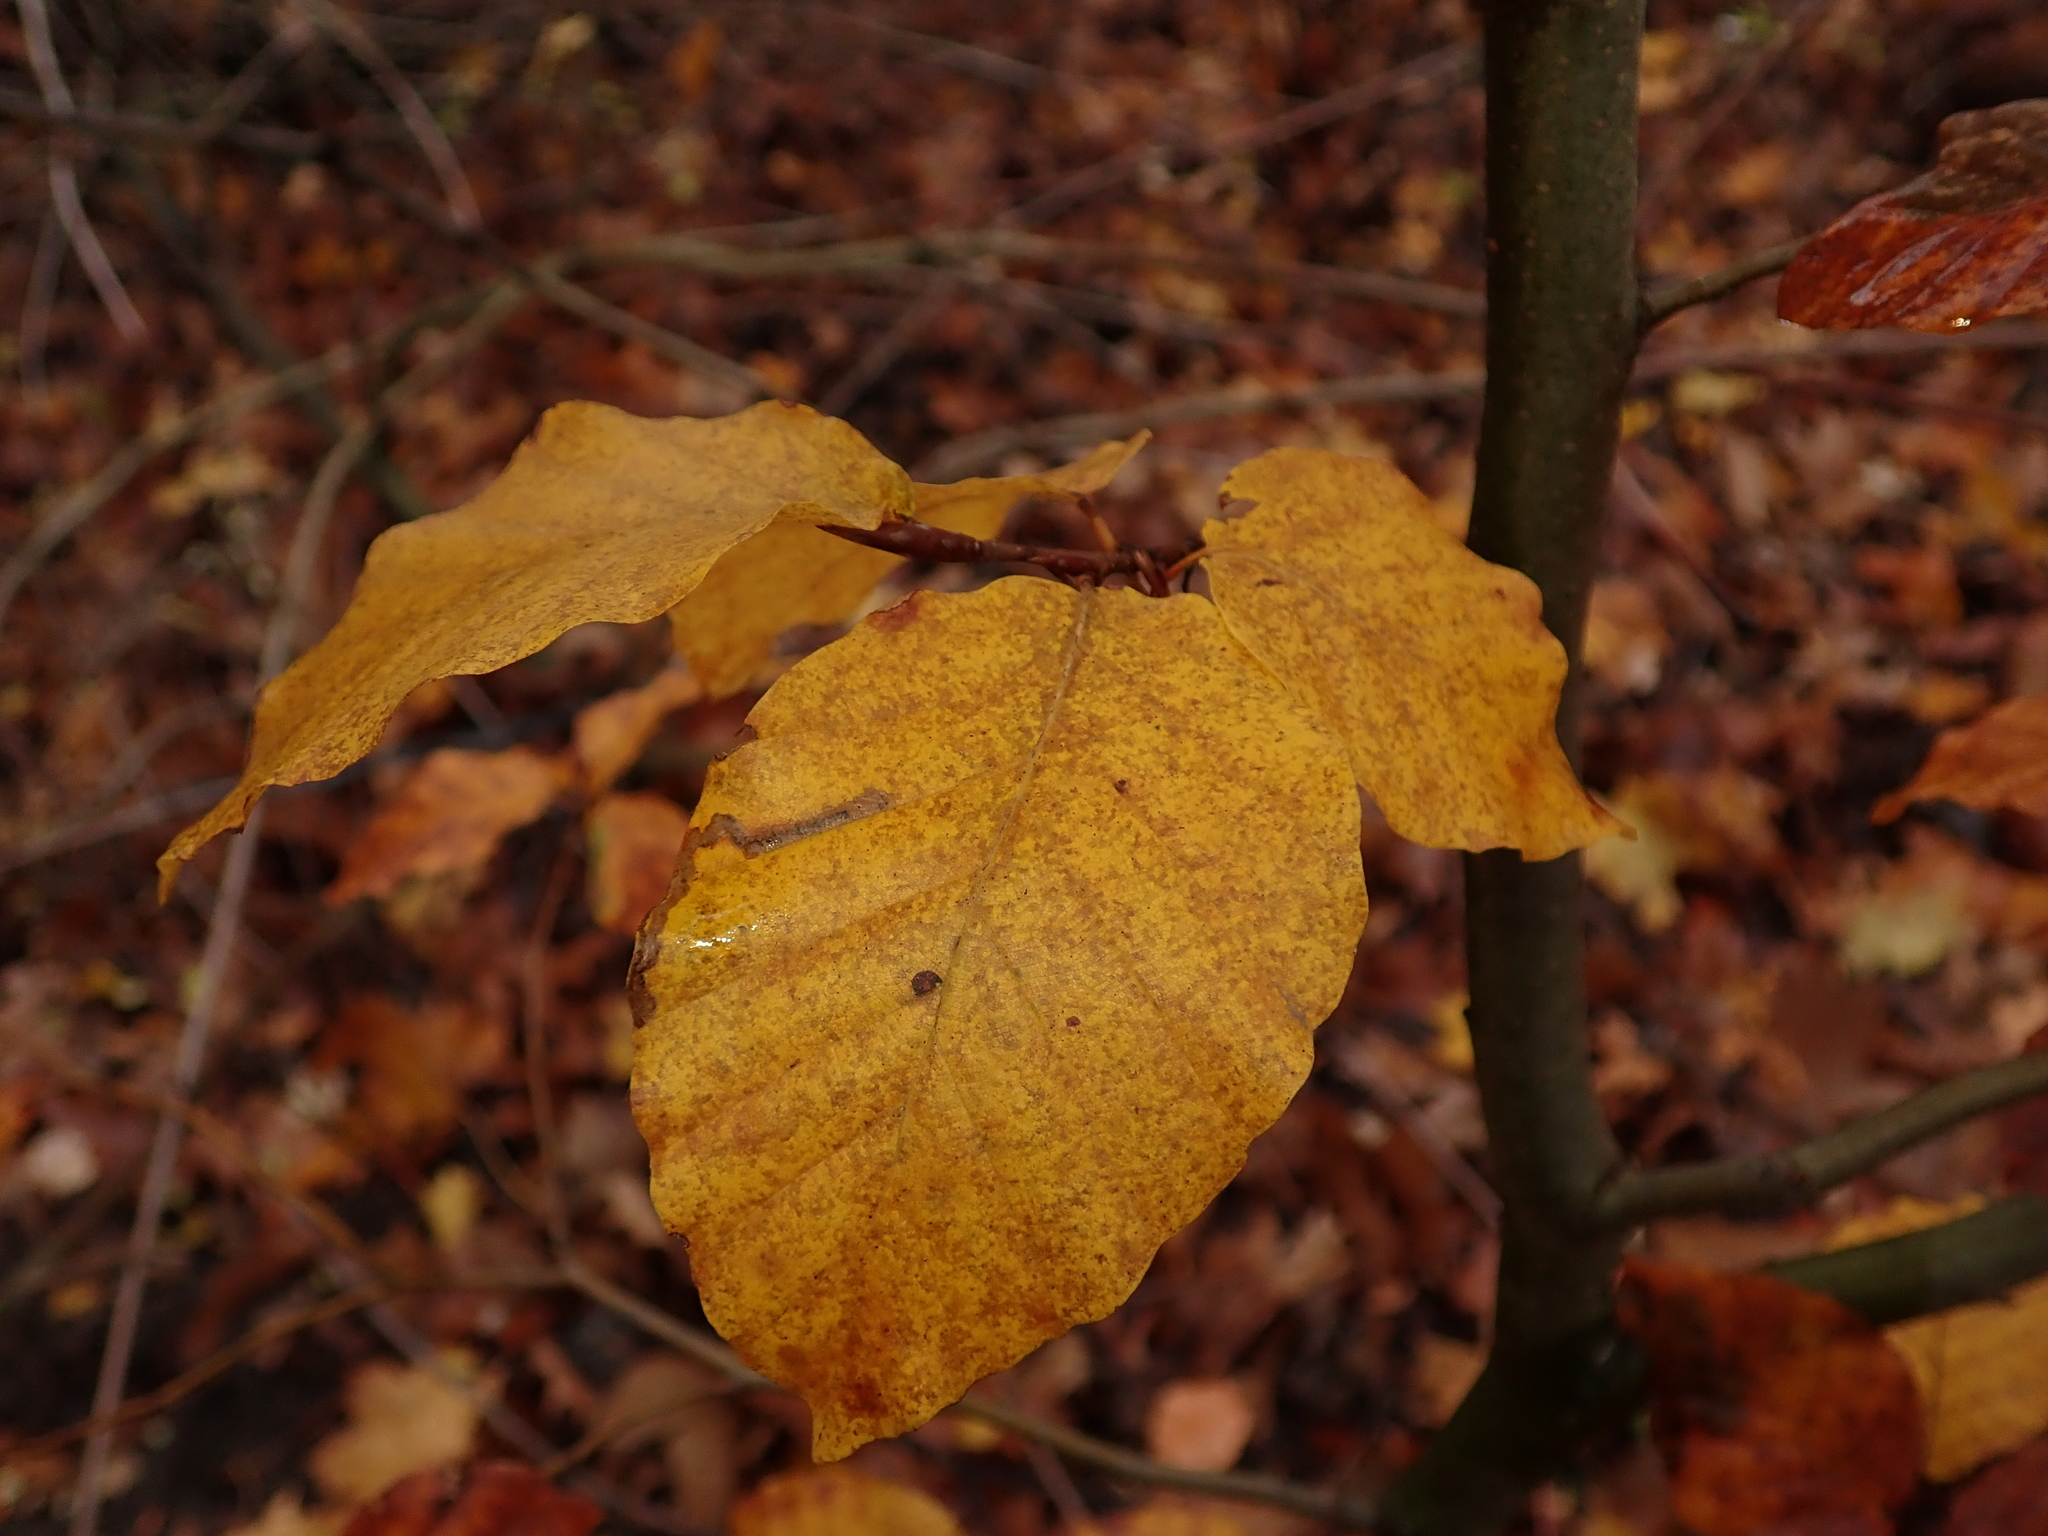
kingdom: Plantae
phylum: Tracheophyta
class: Magnoliopsida
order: Fagales
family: Fagaceae
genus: Fagus
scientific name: Fagus sylvatica
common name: Beech
